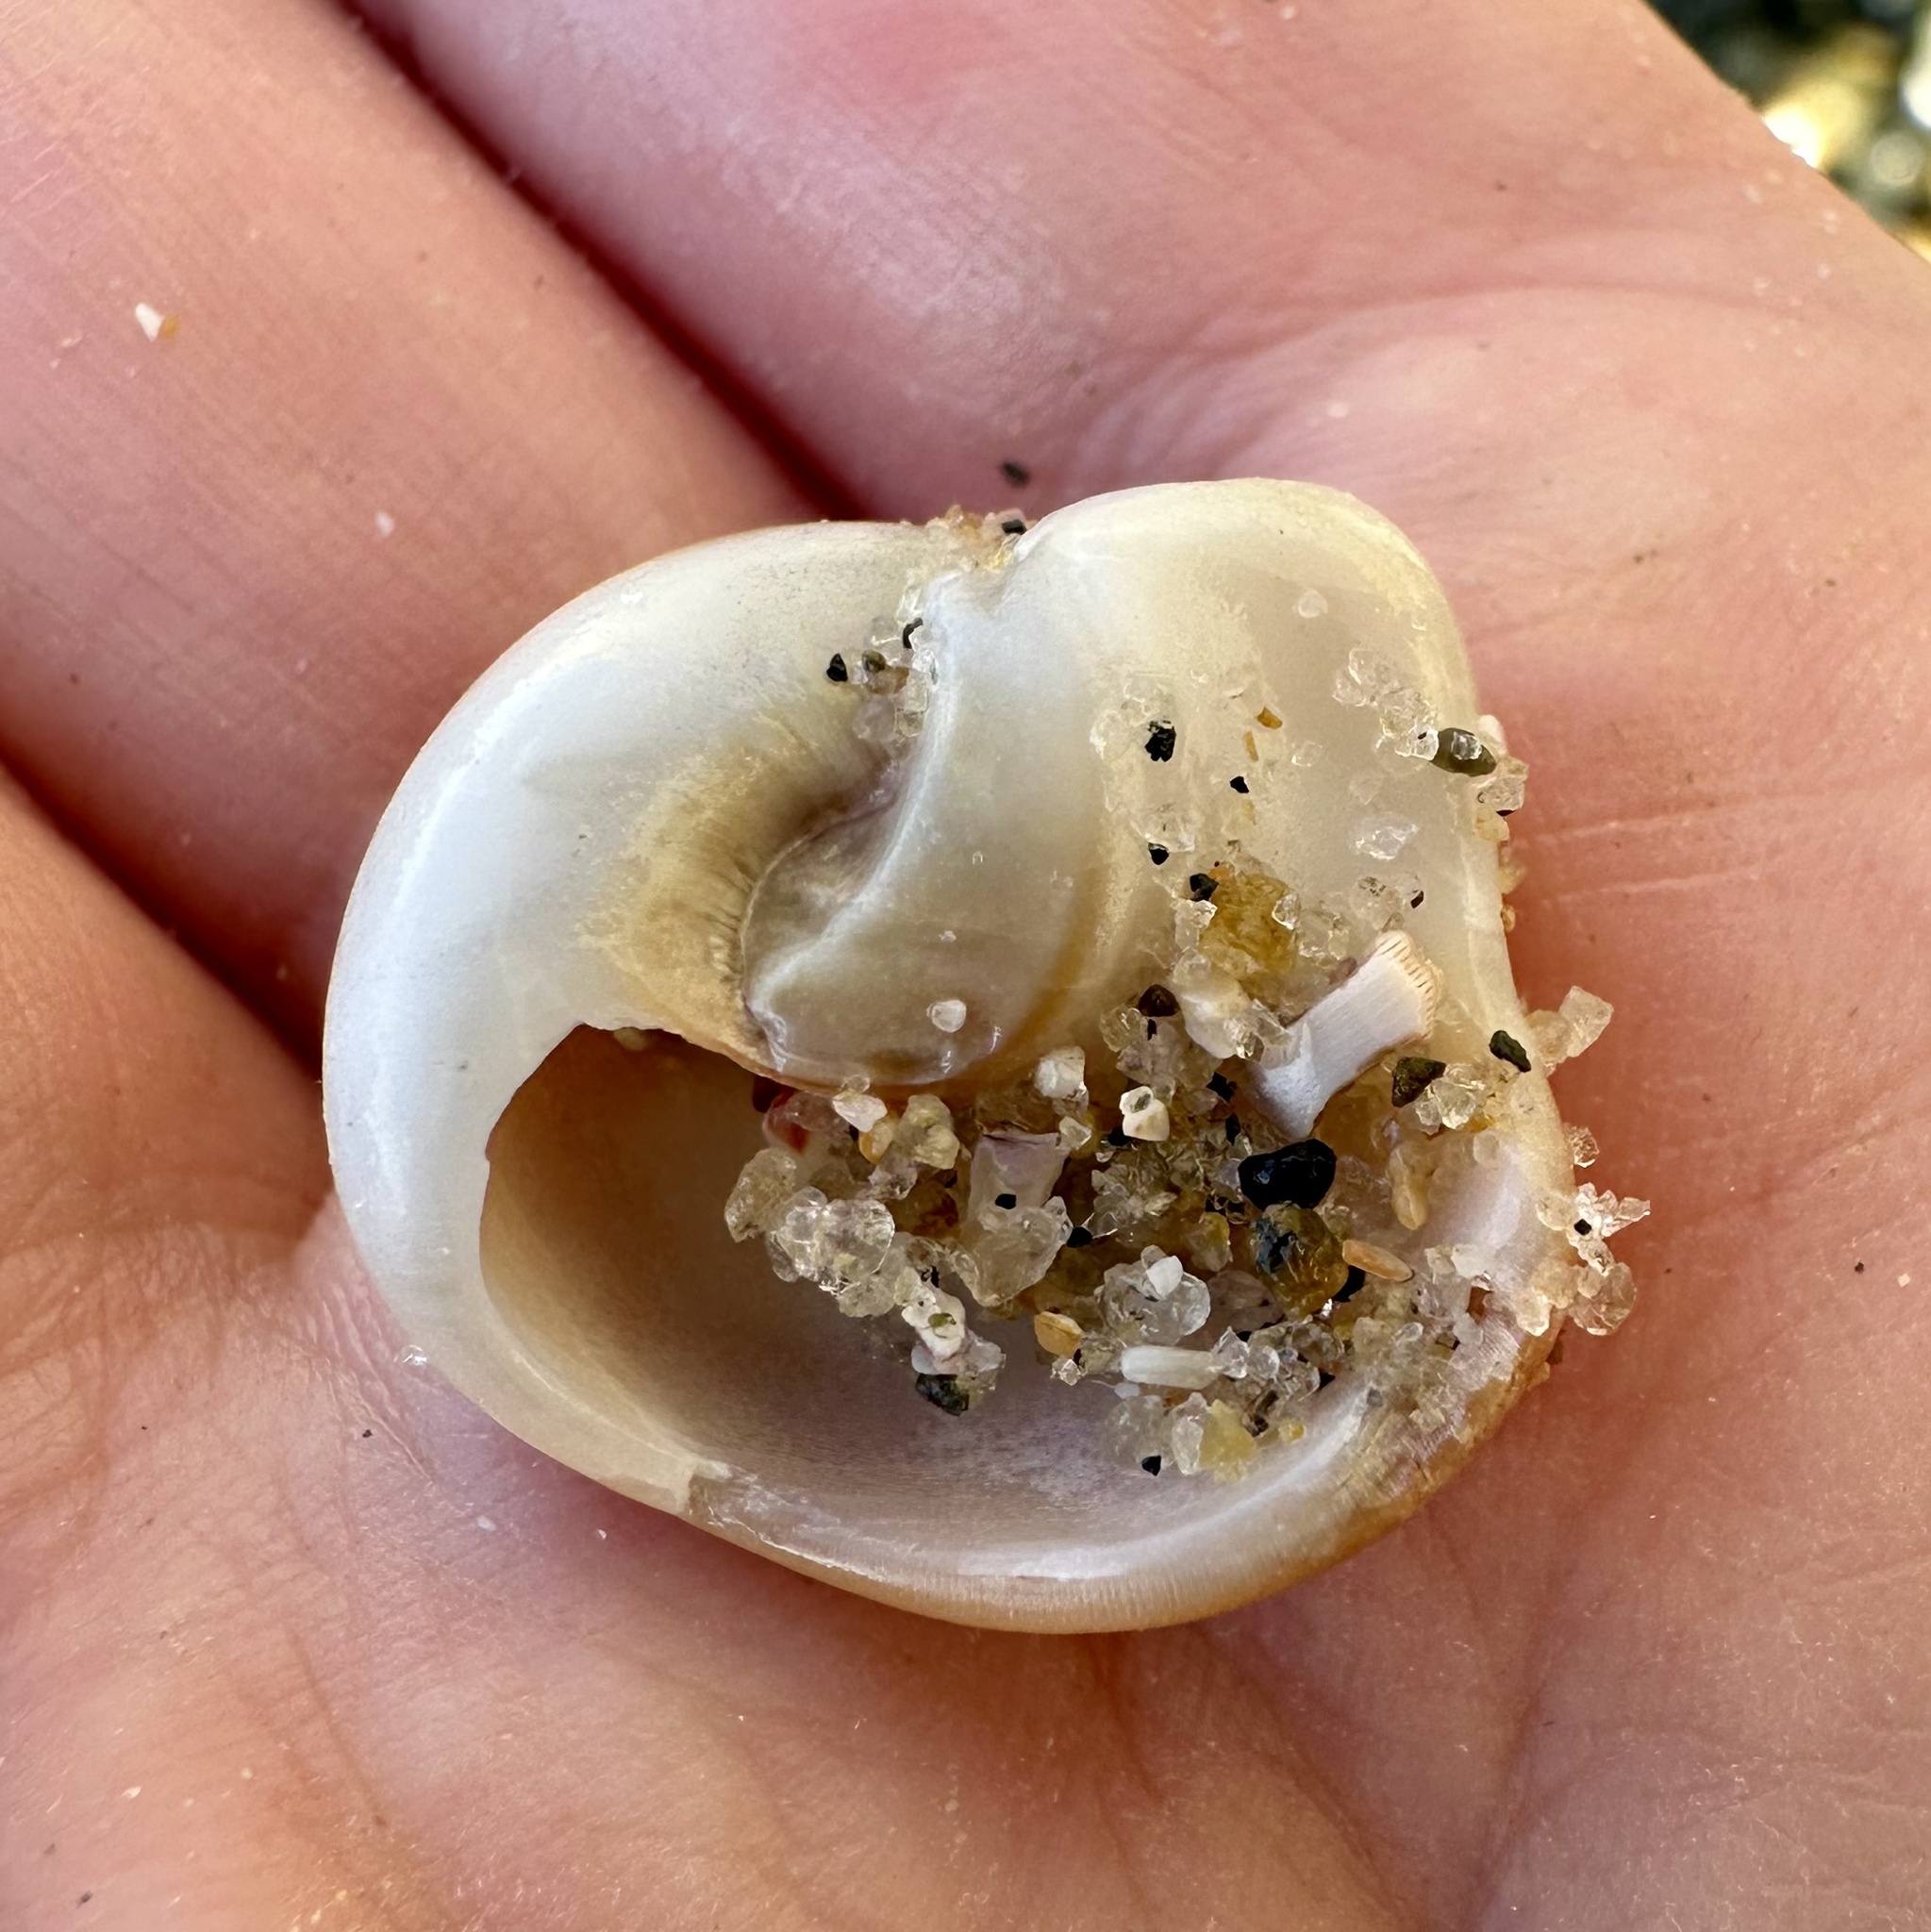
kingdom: Animalia
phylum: Mollusca
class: Gastropoda
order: Littorinimorpha
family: Naticidae
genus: Glossaulax
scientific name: Glossaulax reclusiana
